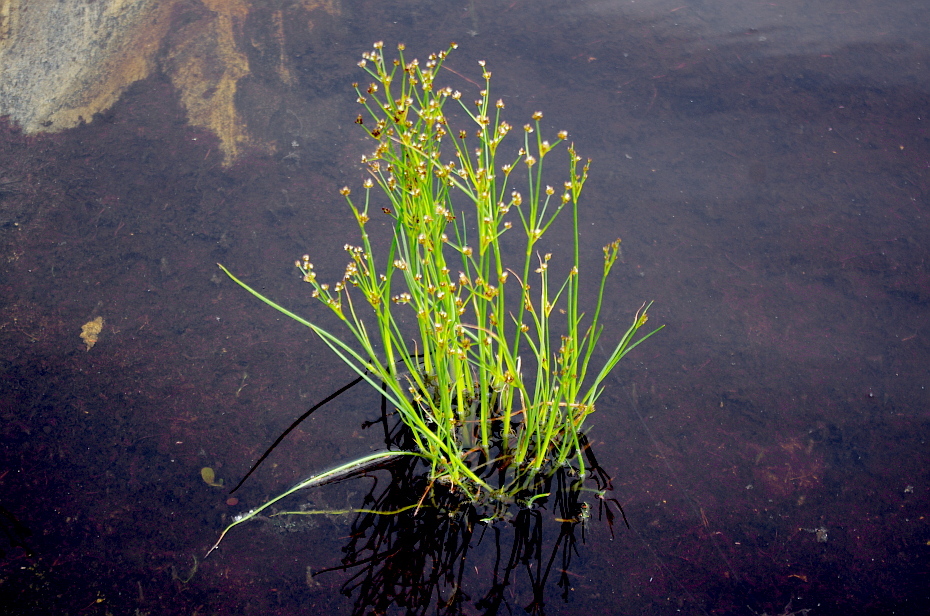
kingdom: Plantae
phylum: Tracheophyta
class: Liliopsida
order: Poales
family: Juncaceae
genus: Juncus
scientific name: Juncus alpinoarticulatus
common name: Alpine rush
